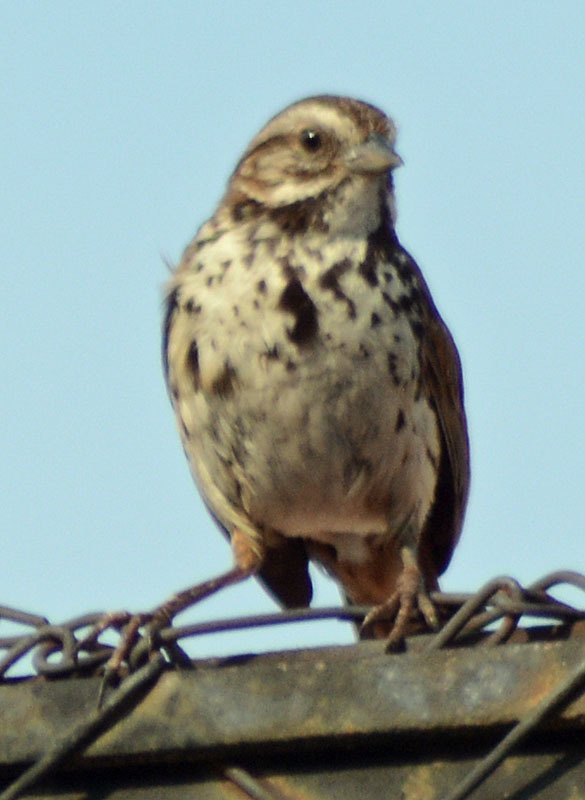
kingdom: Animalia
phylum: Chordata
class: Aves
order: Passeriformes
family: Passerellidae
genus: Melospiza
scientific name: Melospiza melodia
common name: Song sparrow
